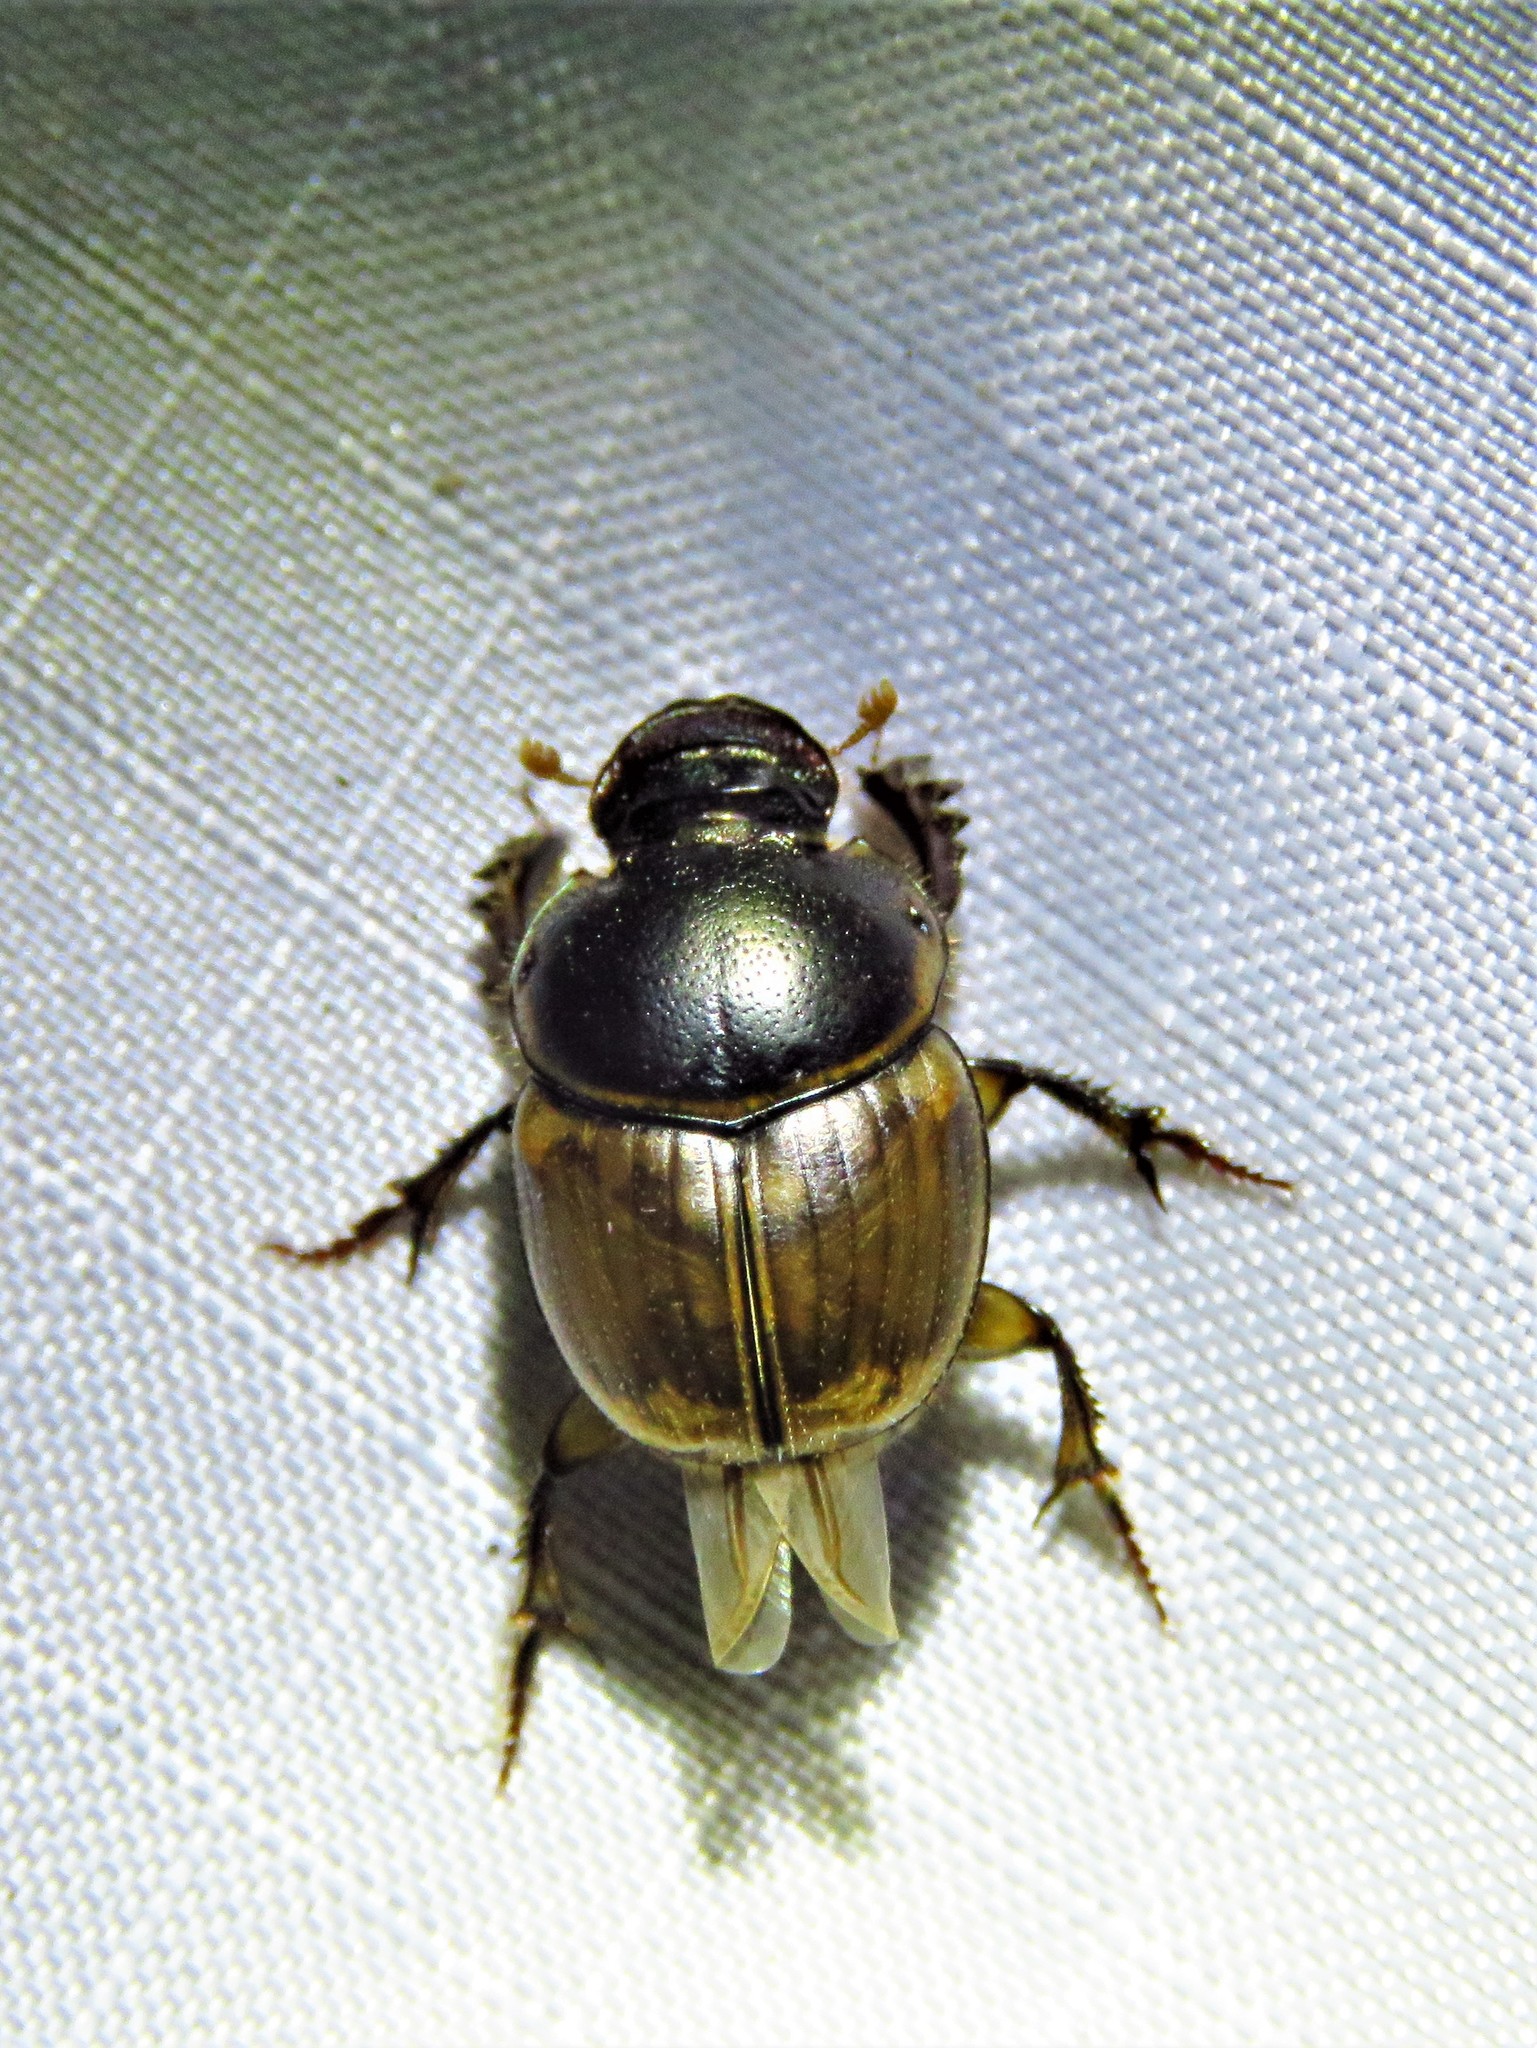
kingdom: Animalia
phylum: Arthropoda
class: Insecta
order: Coleoptera
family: Scarabaeidae
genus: Digitonthophagus
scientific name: Digitonthophagus gazella
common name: Brown dung beetle
